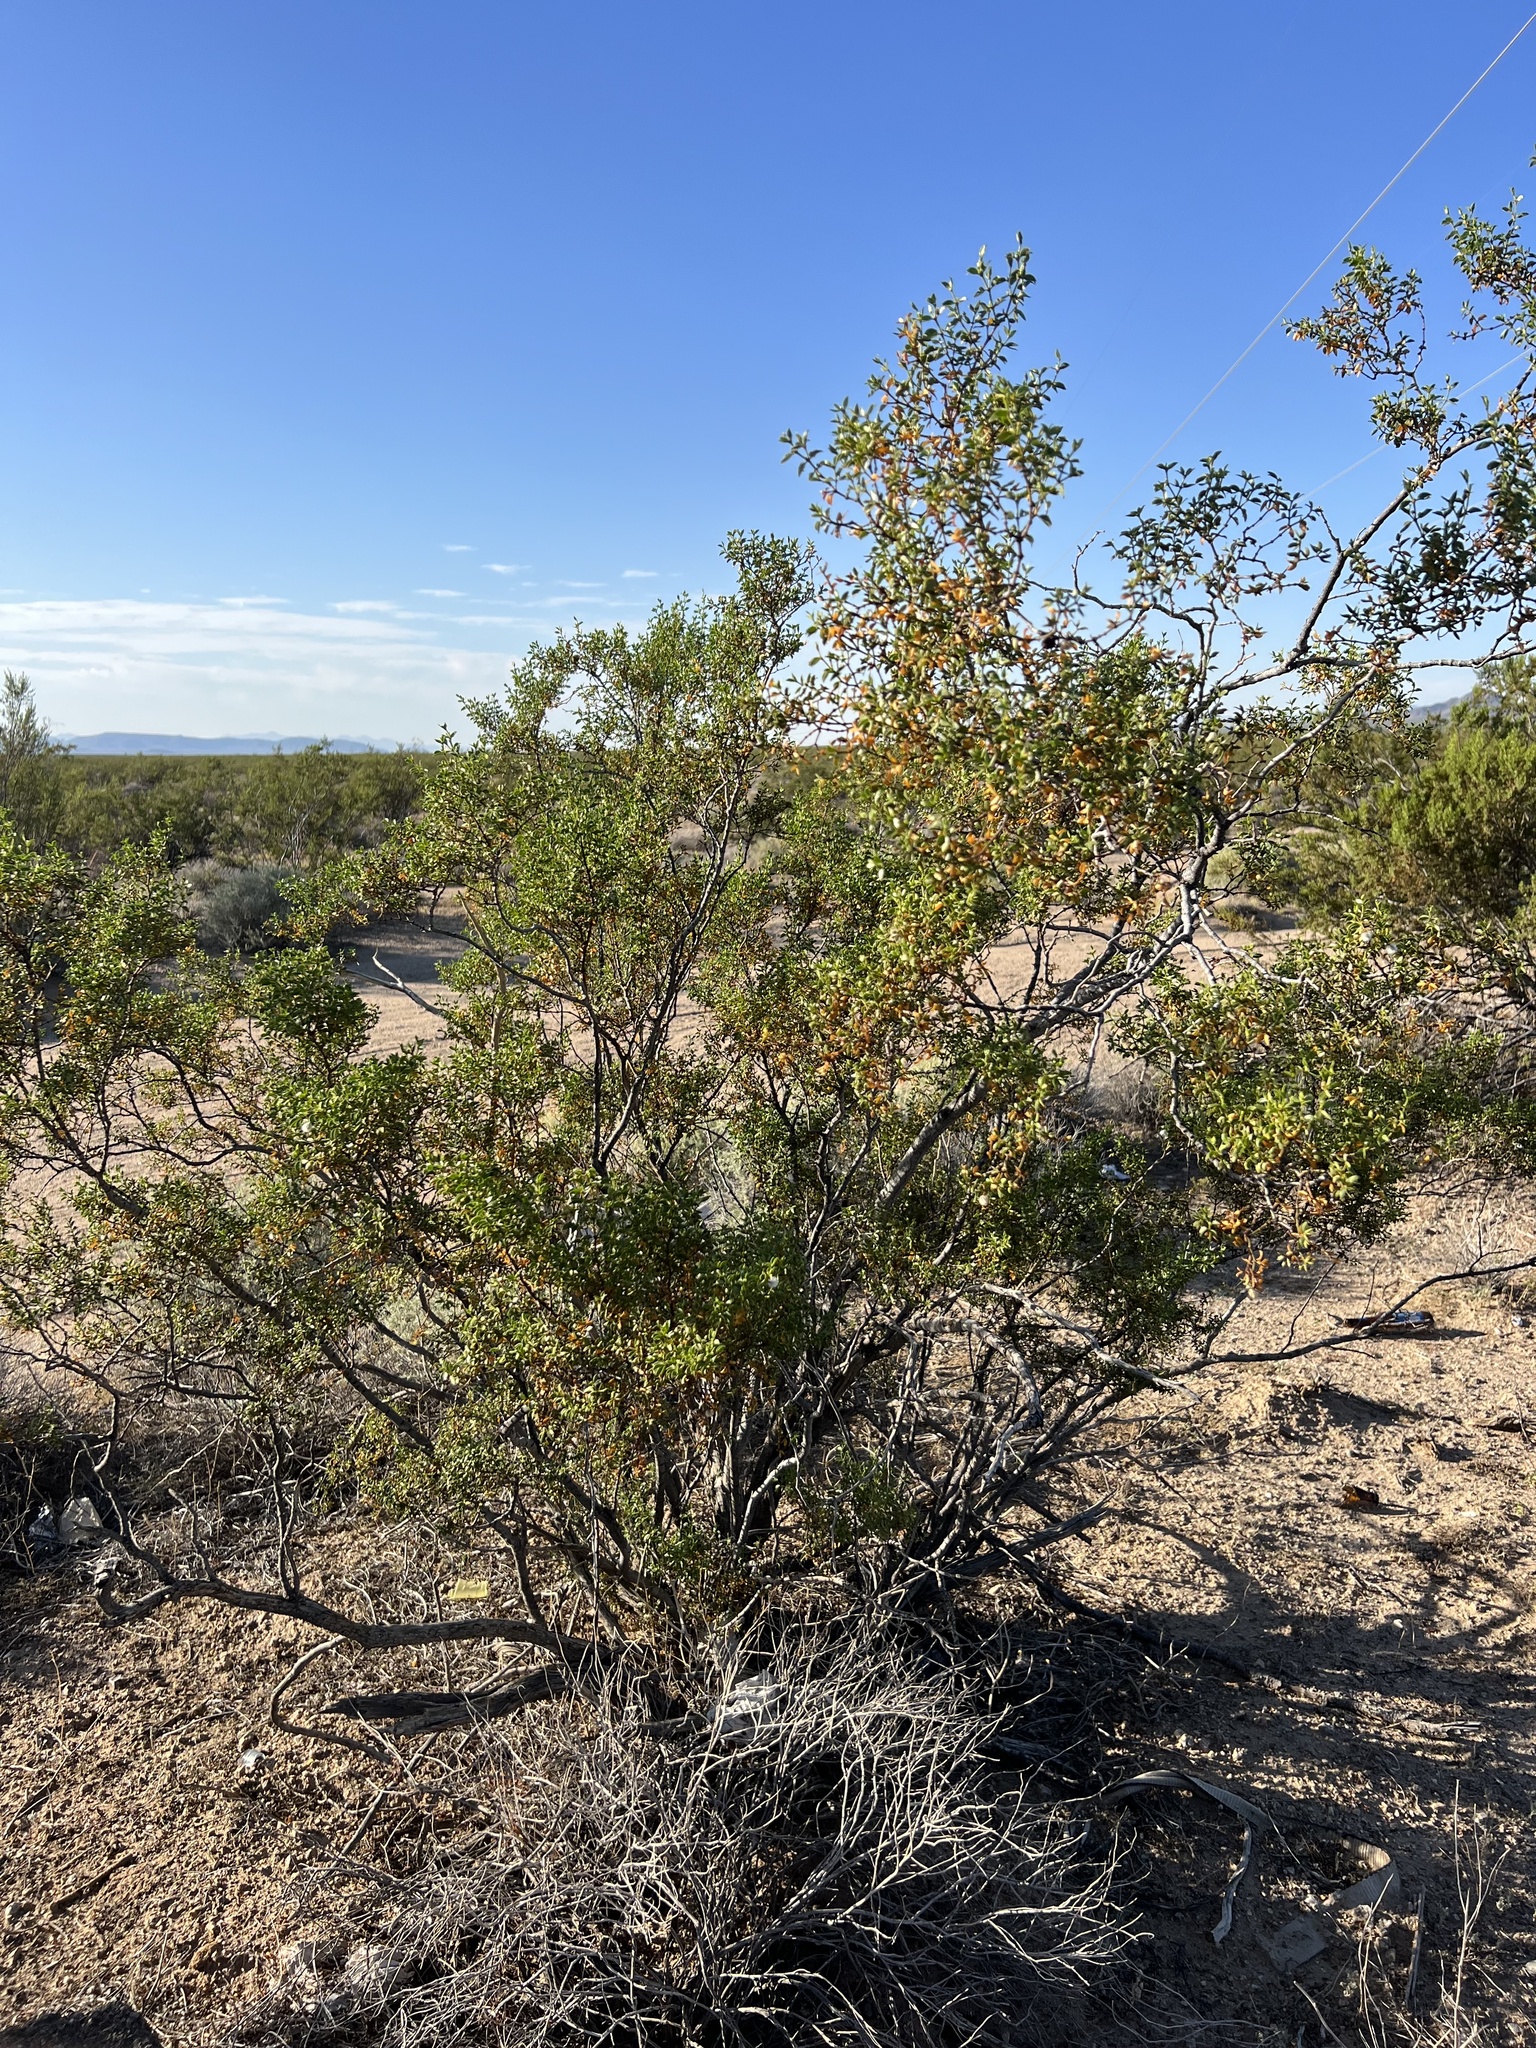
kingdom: Plantae
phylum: Tracheophyta
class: Magnoliopsida
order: Zygophyllales
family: Zygophyllaceae
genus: Larrea
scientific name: Larrea tridentata
